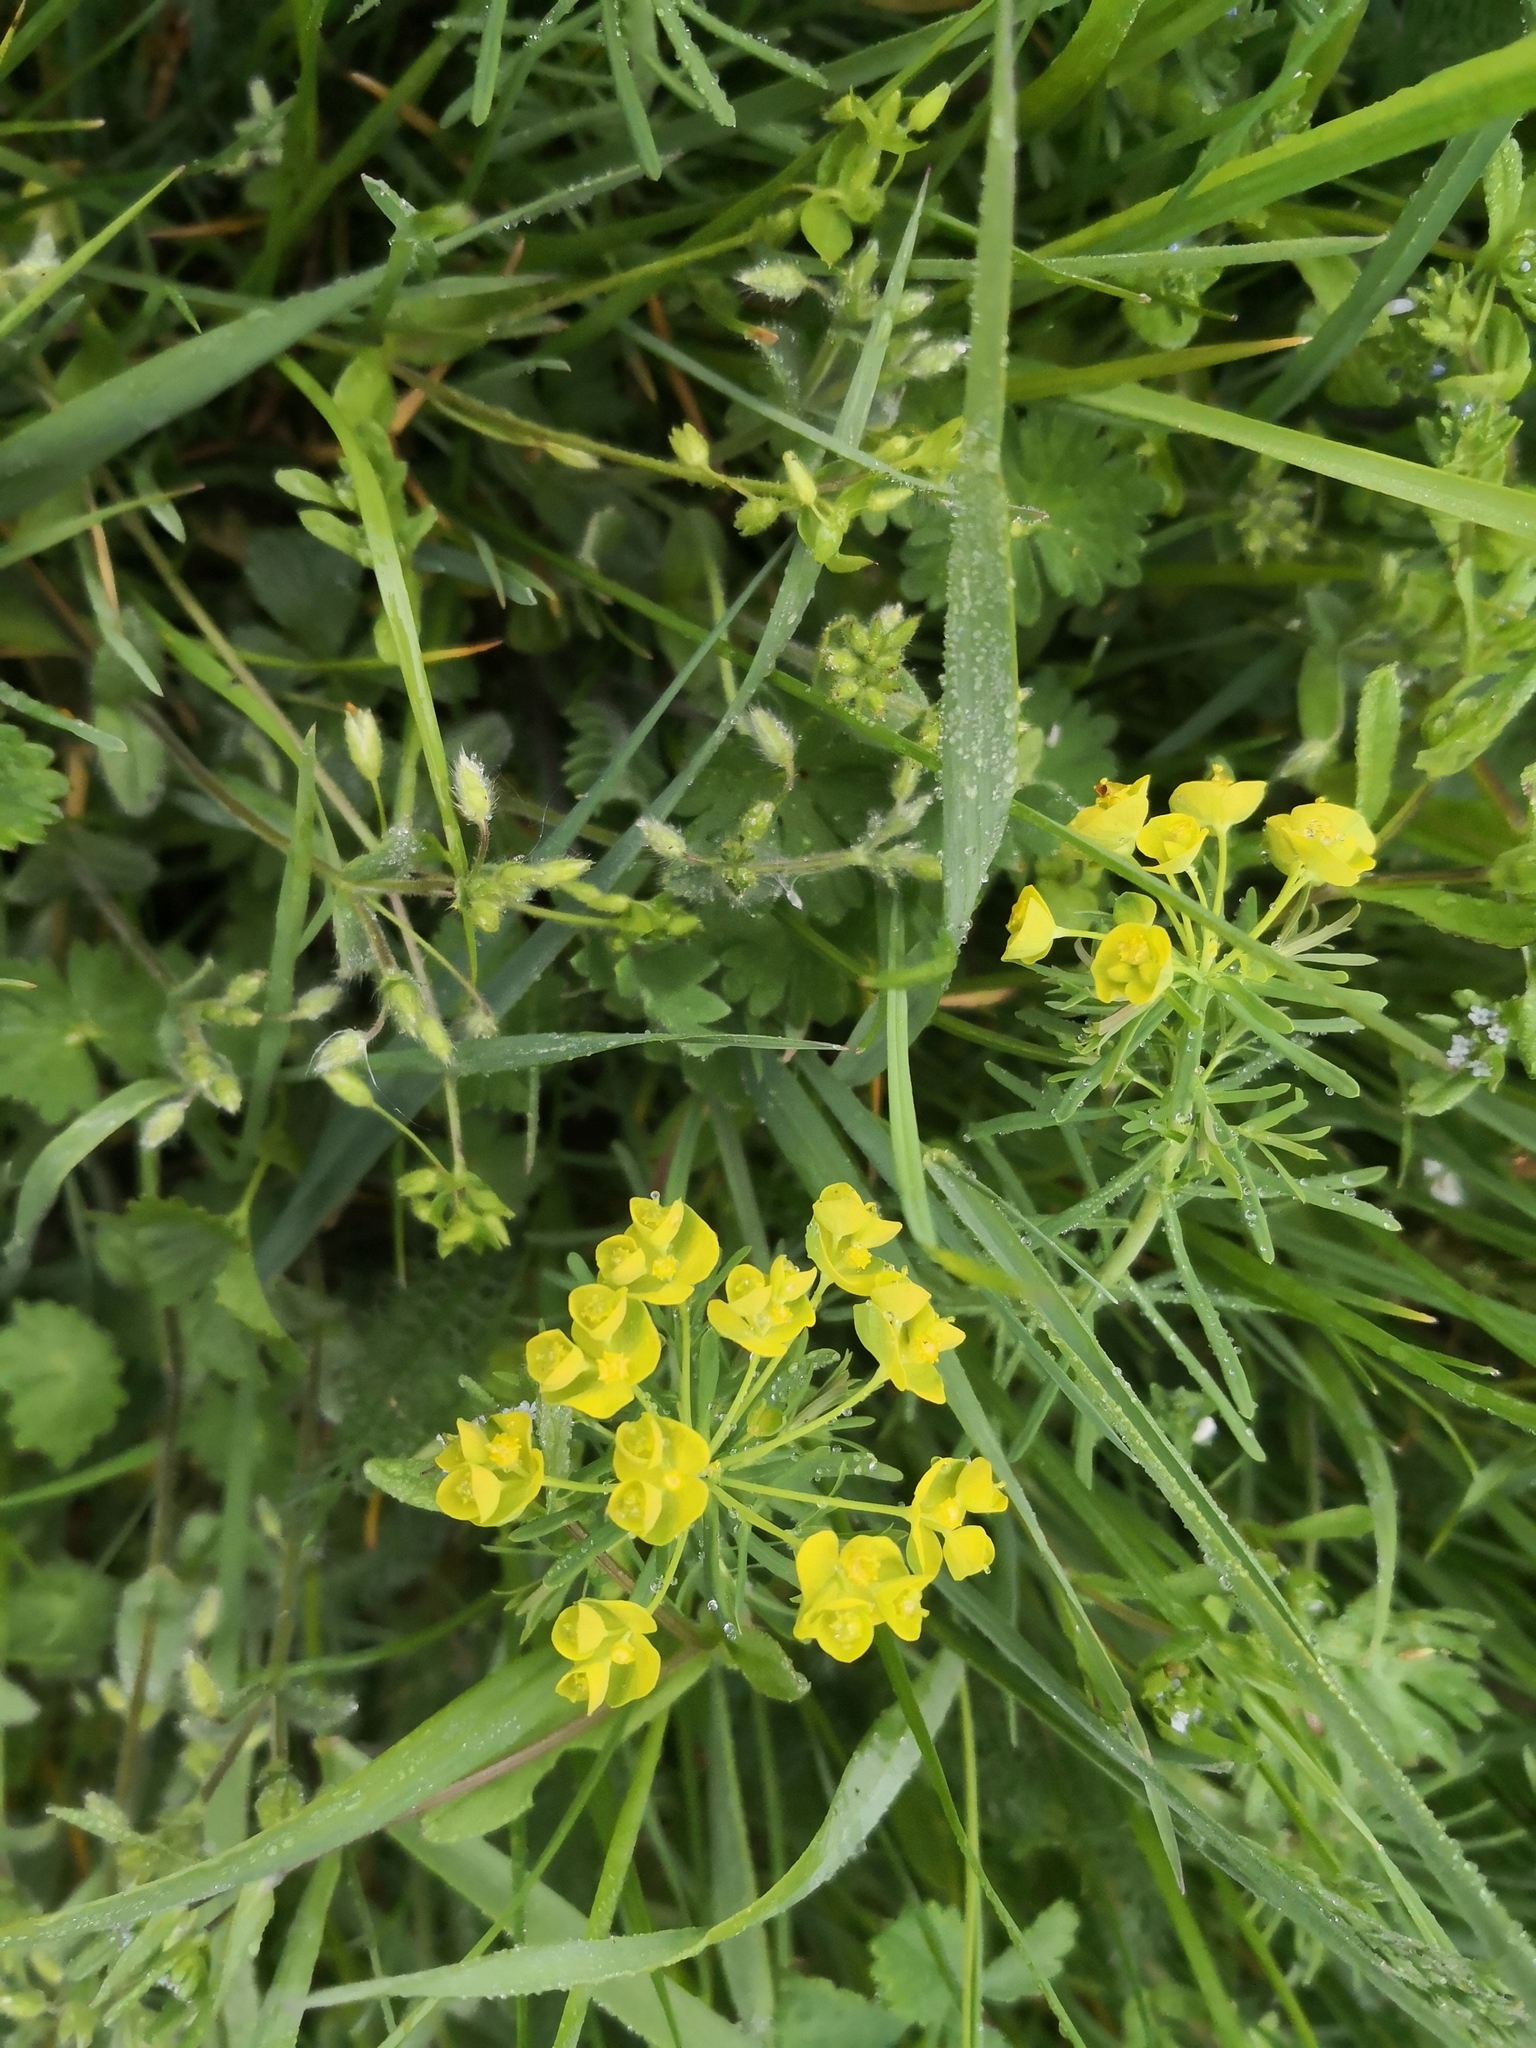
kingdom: Plantae
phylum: Tracheophyta
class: Magnoliopsida
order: Malpighiales
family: Euphorbiaceae
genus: Euphorbia
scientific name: Euphorbia cyparissias
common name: Cypress spurge
